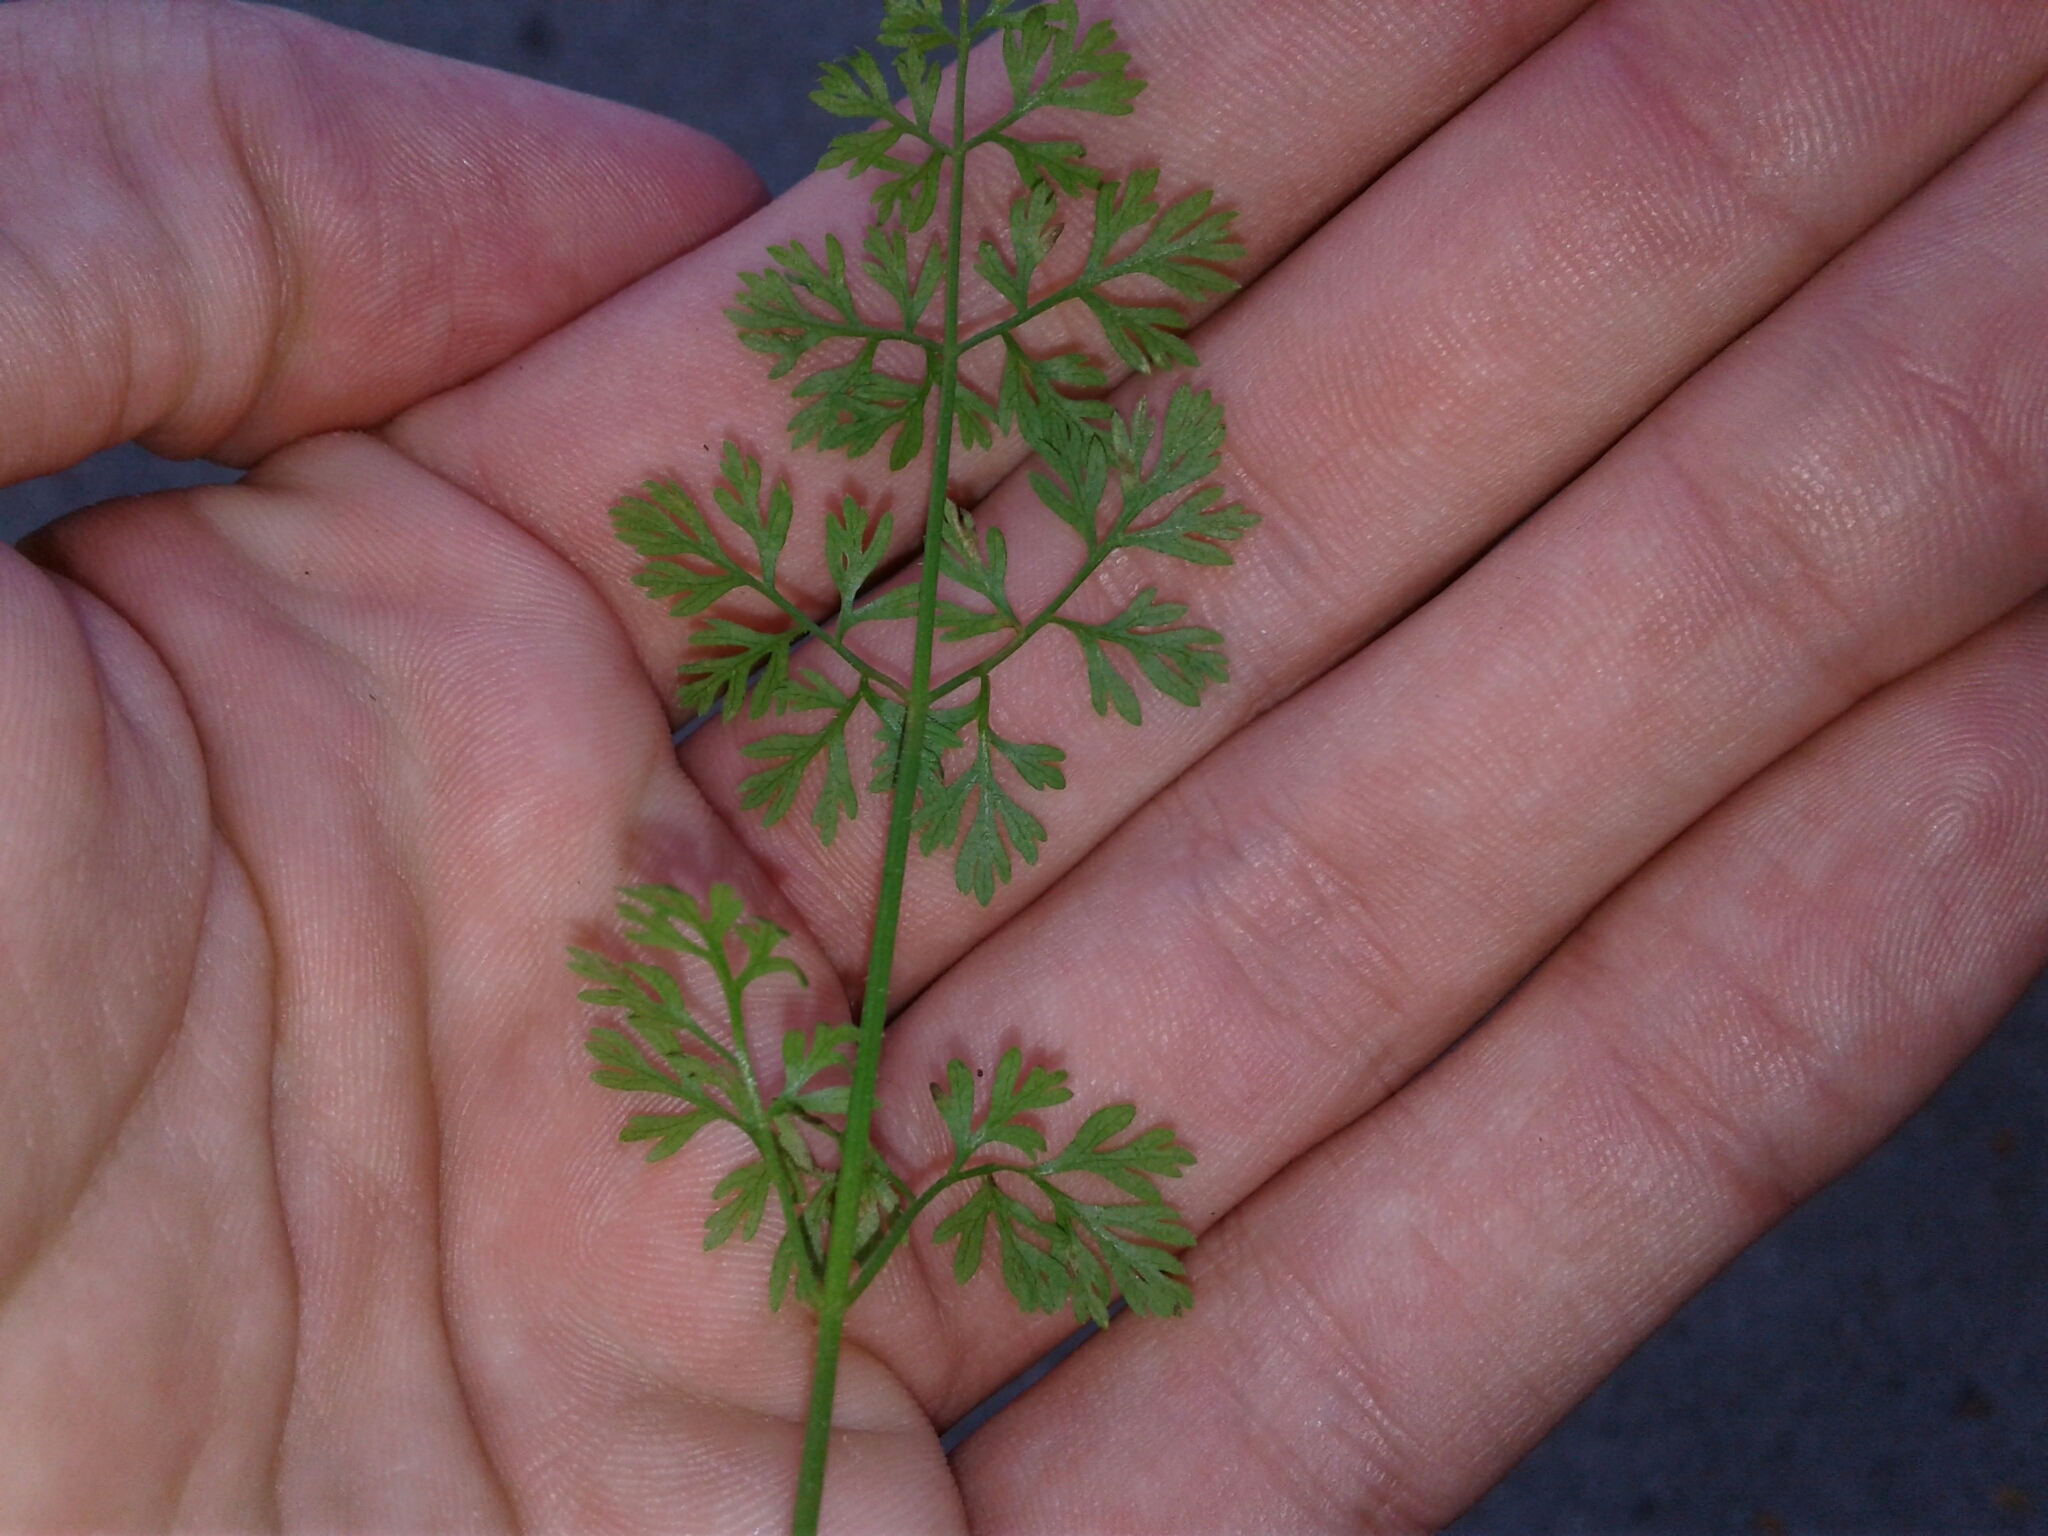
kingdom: Plantae
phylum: Tracheophyta
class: Magnoliopsida
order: Apiales
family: Apiaceae
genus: Daucus
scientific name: Daucus carota
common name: Wild carrot
